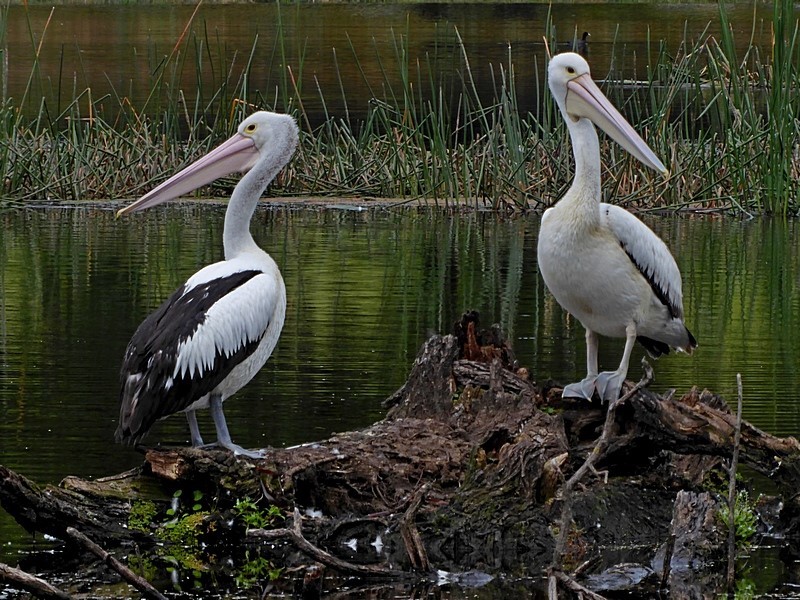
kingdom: Animalia
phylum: Chordata
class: Aves
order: Pelecaniformes
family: Pelecanidae
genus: Pelecanus
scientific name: Pelecanus conspicillatus
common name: Australian pelican
